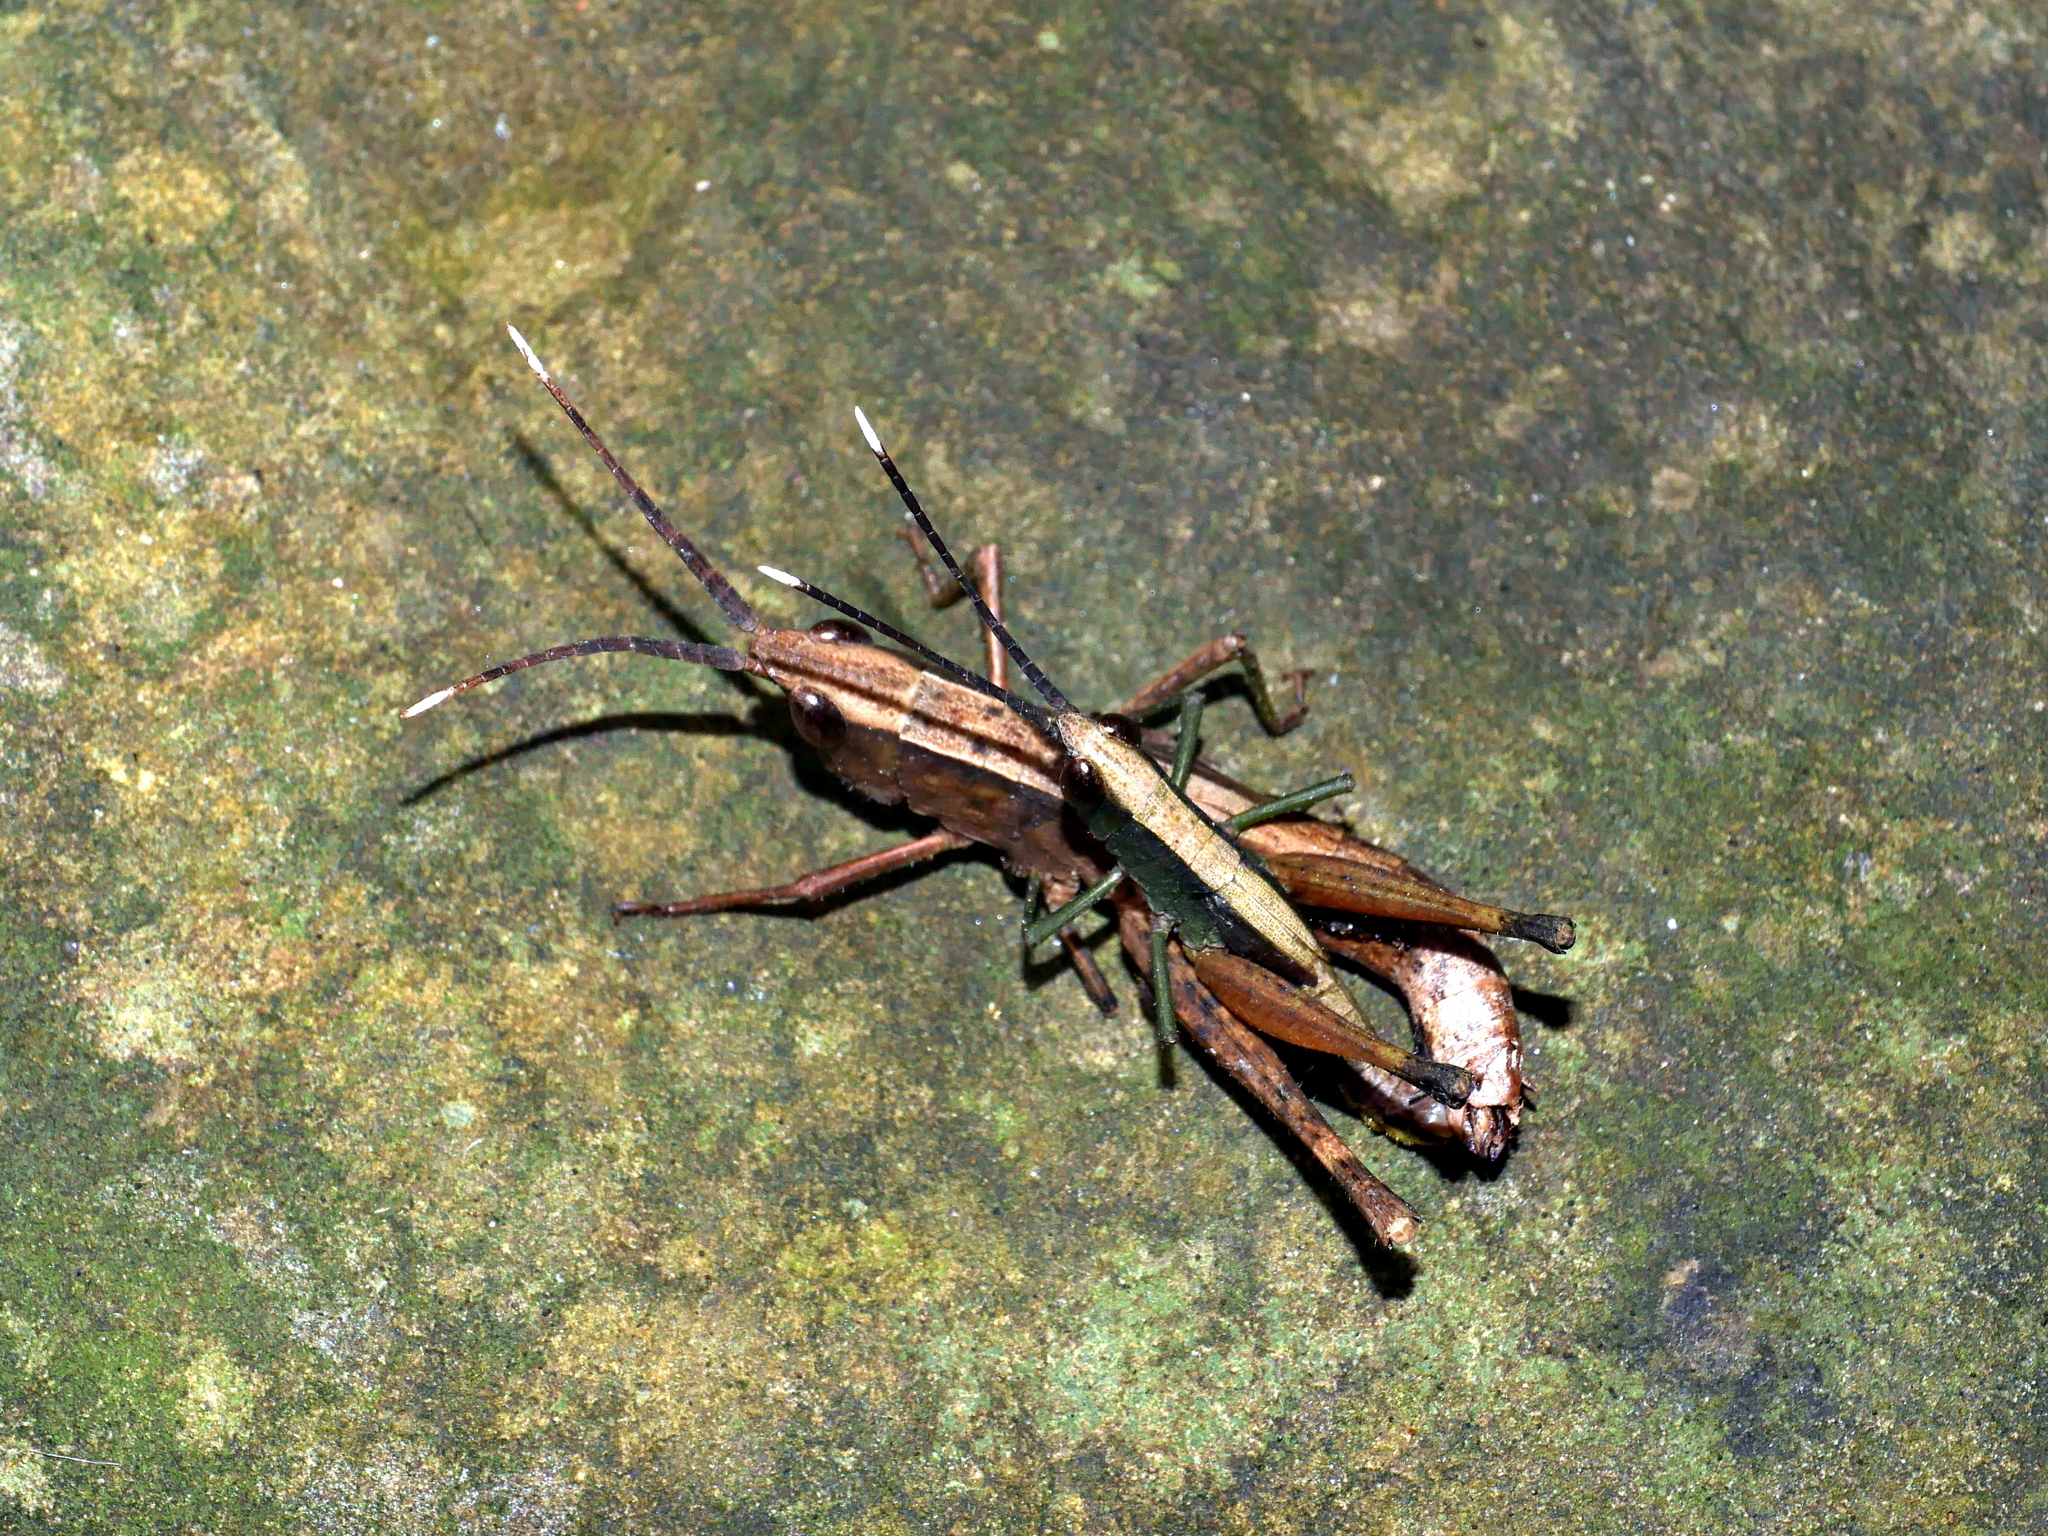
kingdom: Animalia
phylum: Arthropoda
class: Insecta
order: Orthoptera
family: Acrididae
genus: Phlaeoba
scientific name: Phlaeoba formosana
